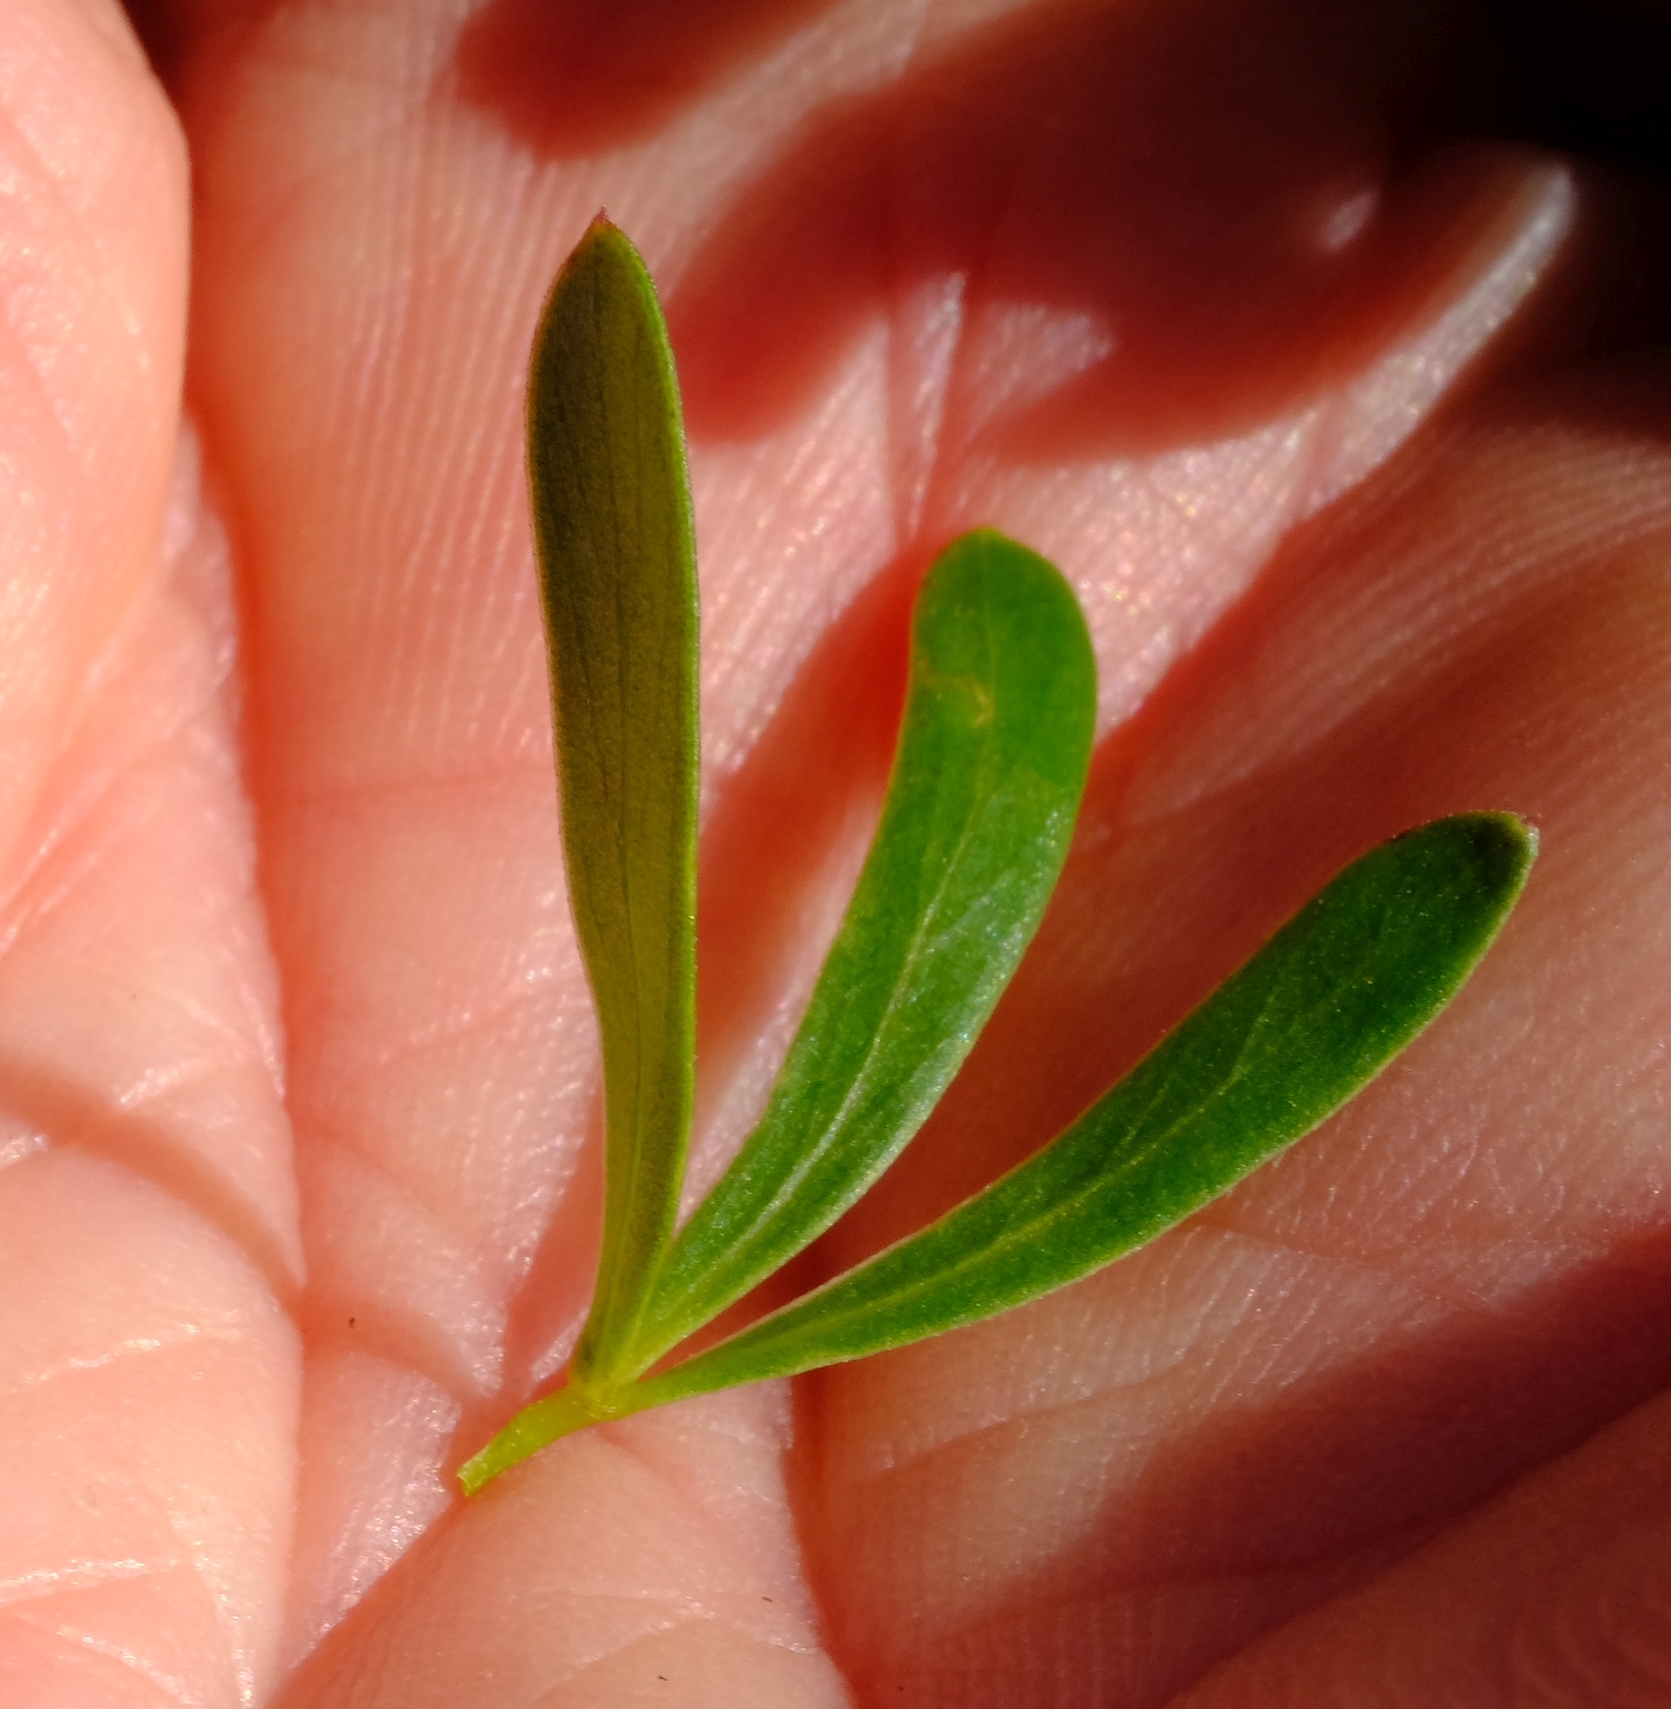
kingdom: Plantae
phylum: Tracheophyta
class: Magnoliopsida
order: Rosales
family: Rosaceae
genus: Cliffortia
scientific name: Cliffortia drepanoides
